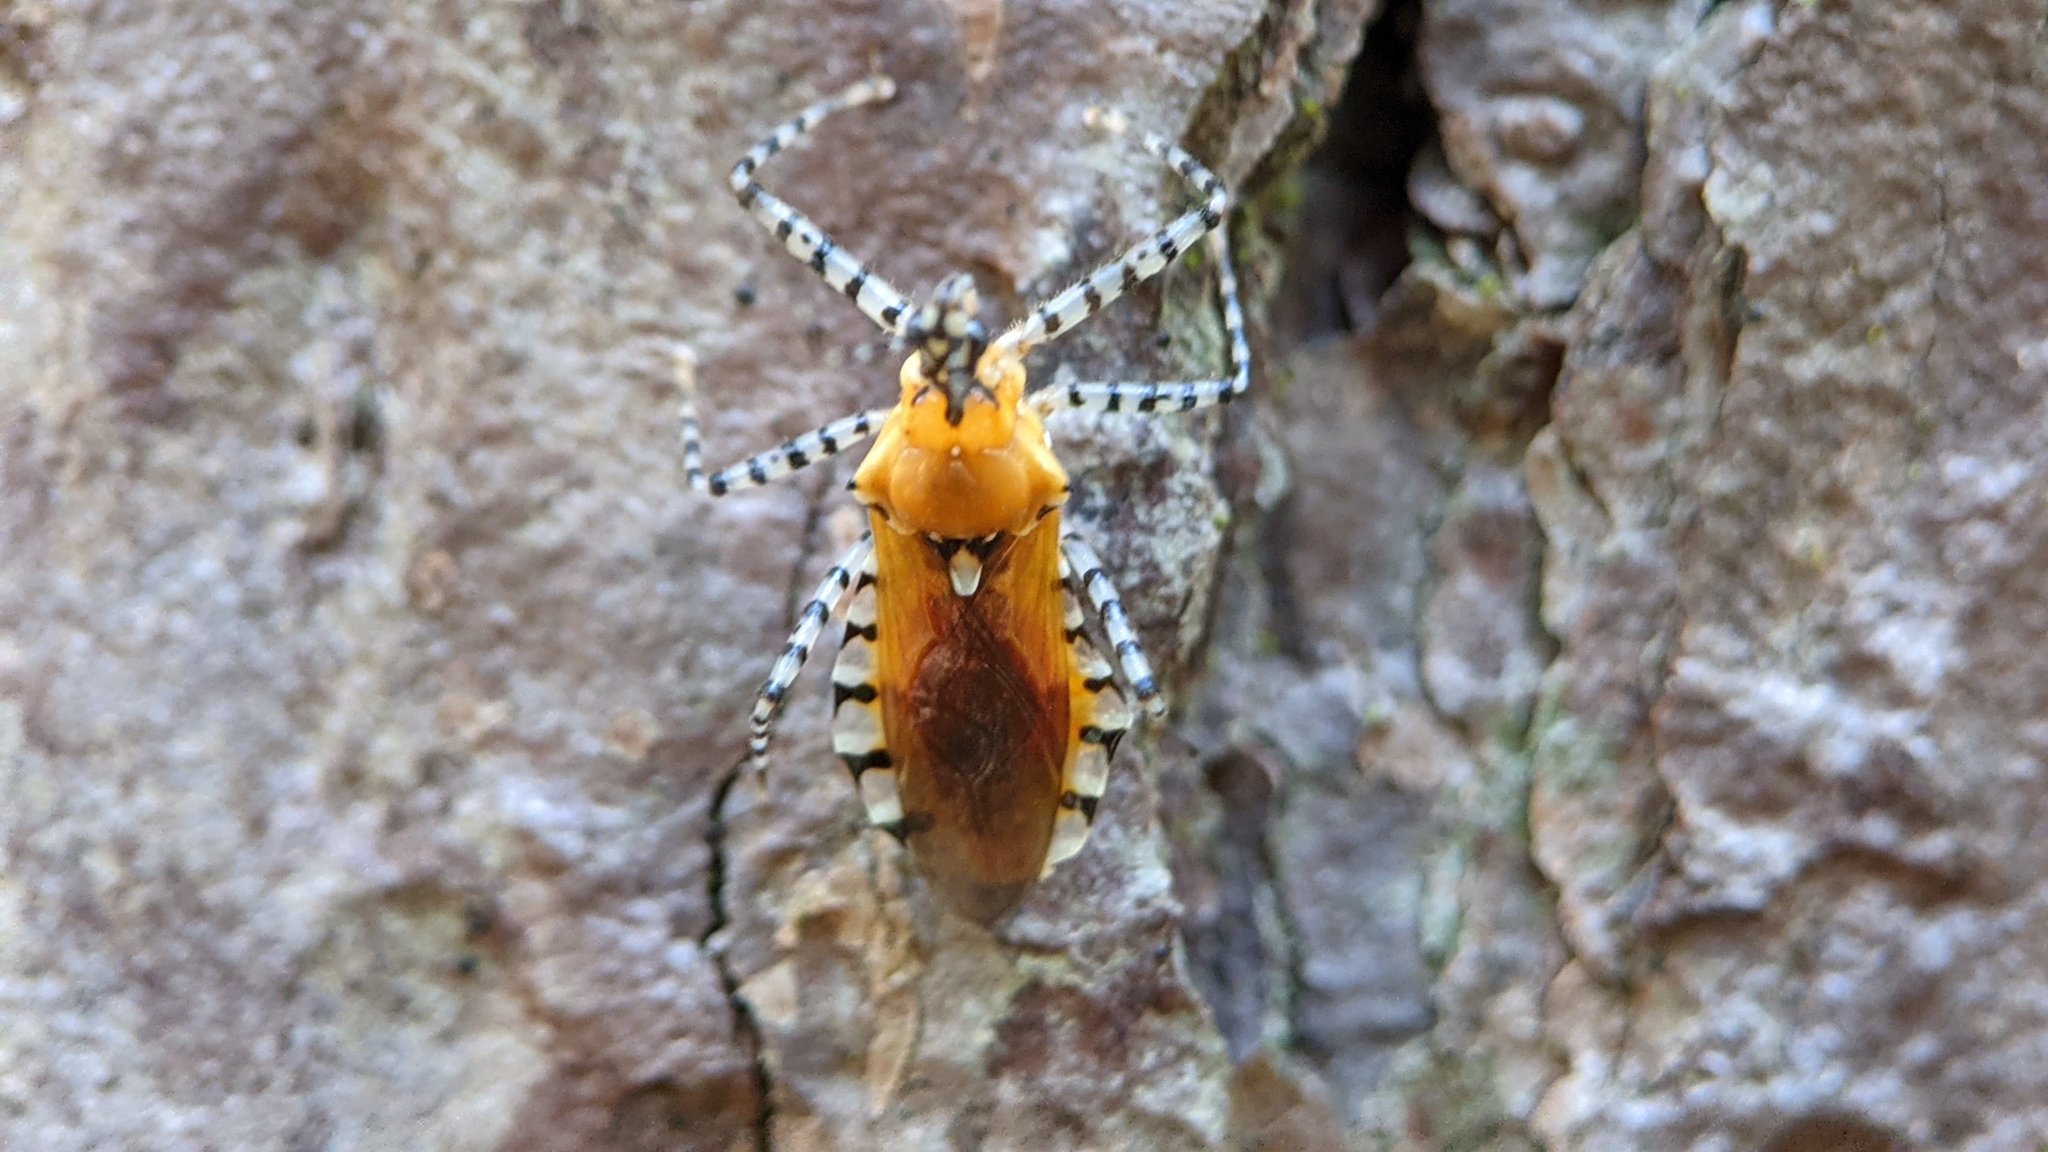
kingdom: Animalia
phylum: Arthropoda
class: Insecta
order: Hemiptera
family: Reduviidae
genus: Pselliopus
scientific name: Pselliopus cinctus
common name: Ringed assassin bug
